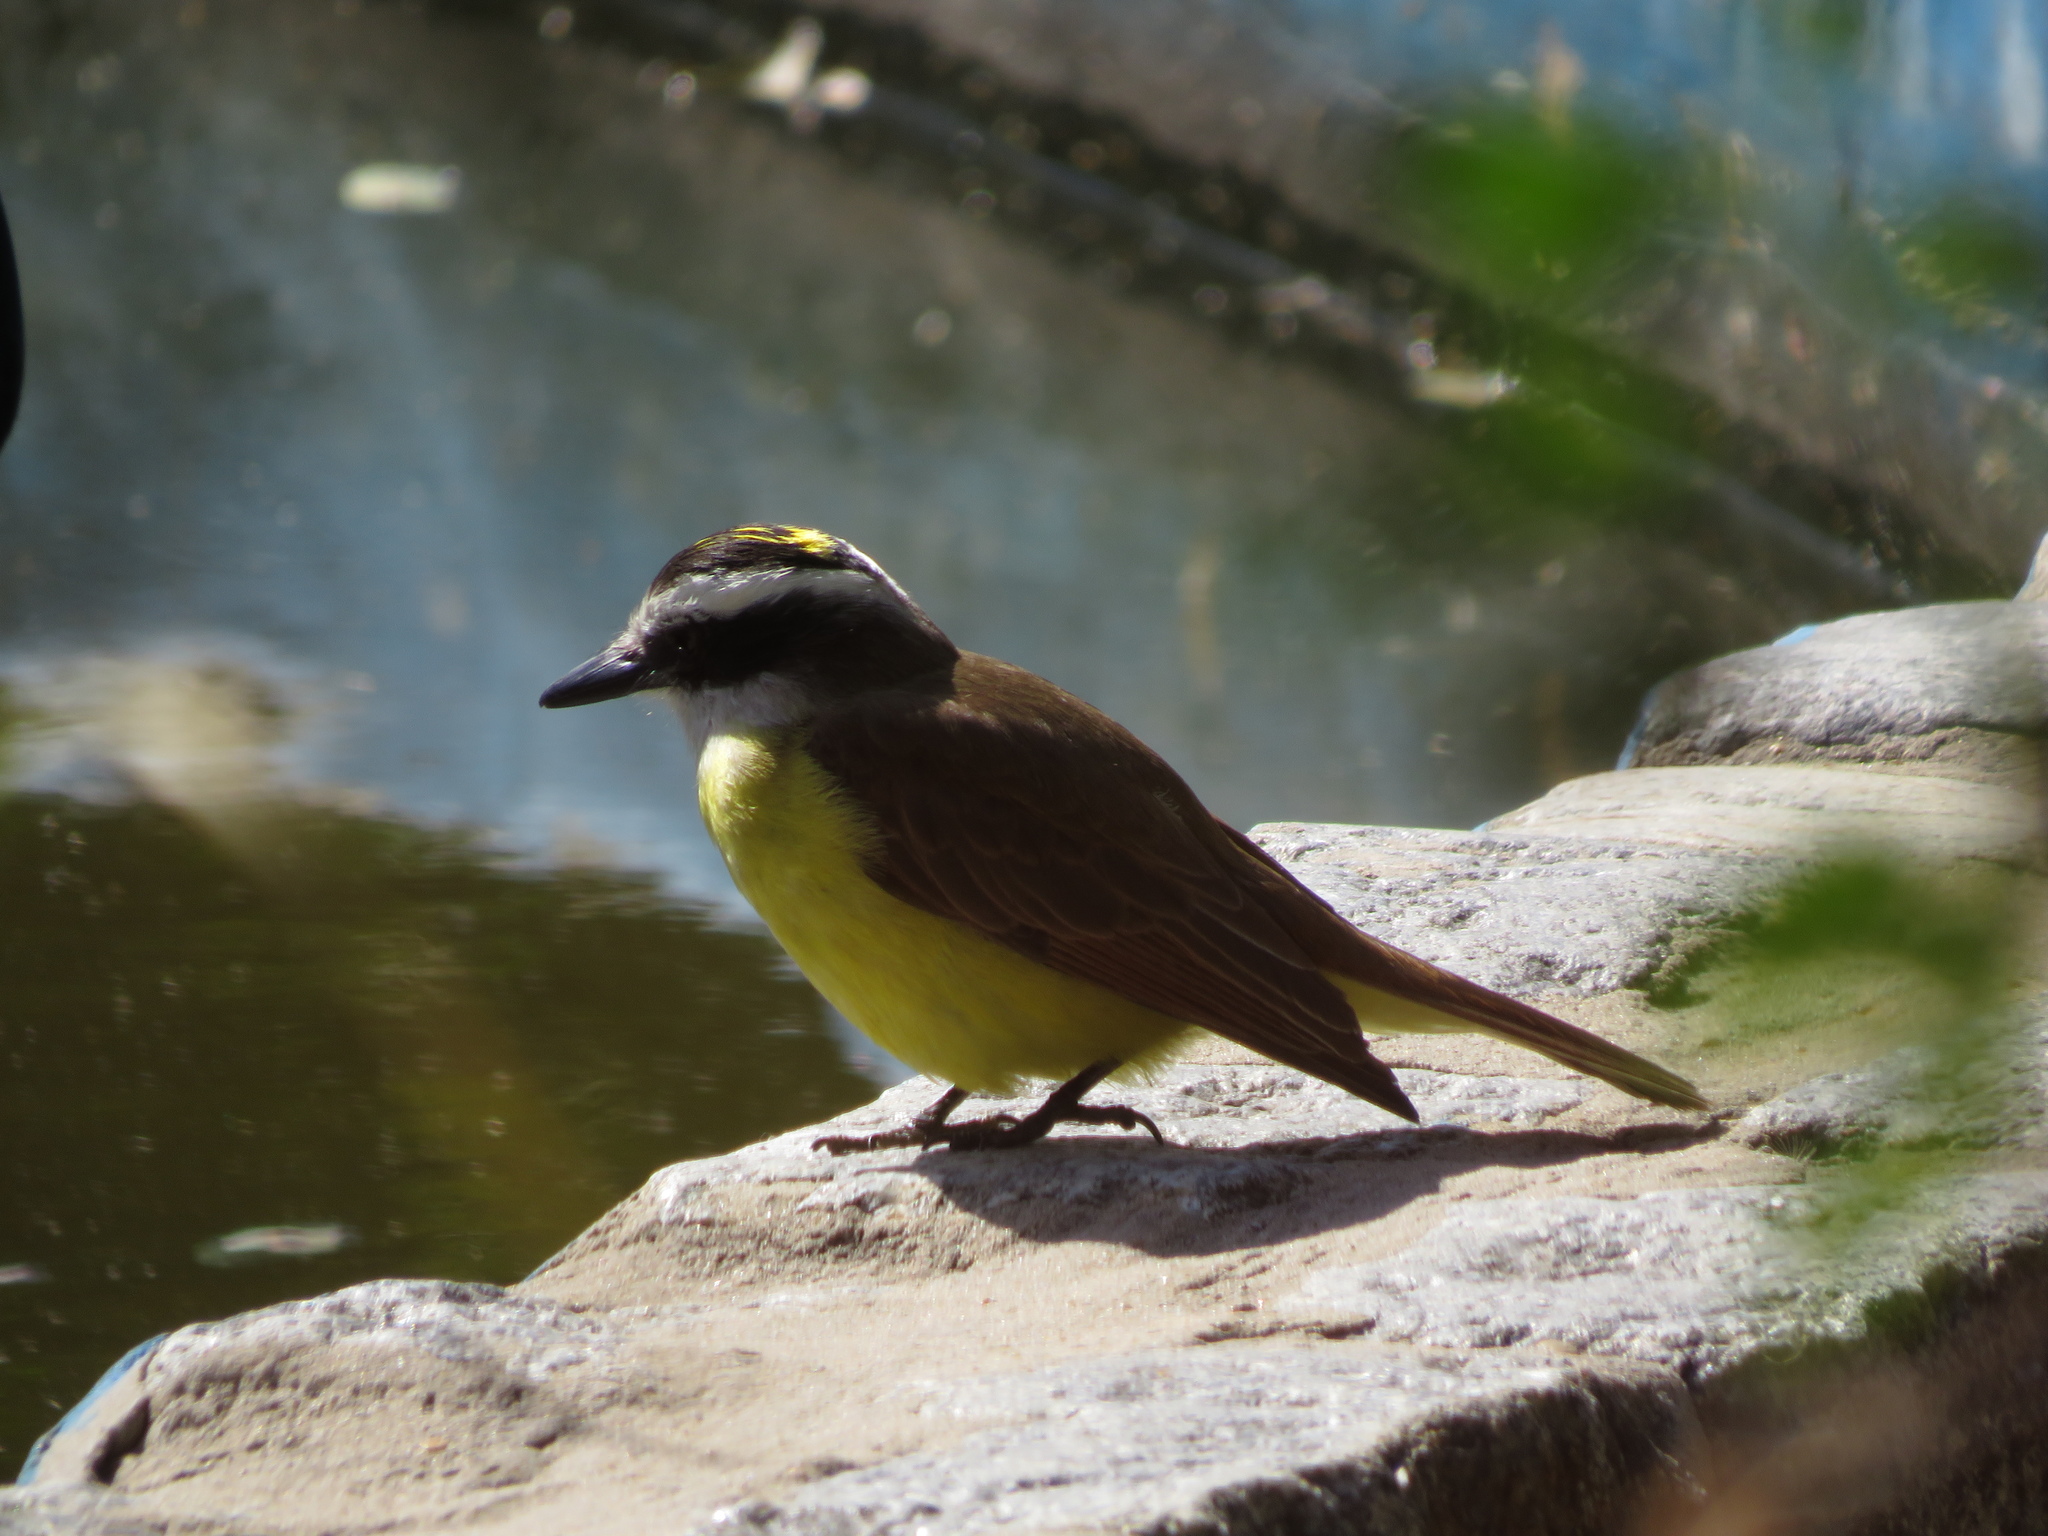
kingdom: Animalia
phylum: Chordata
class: Aves
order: Passeriformes
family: Tyrannidae
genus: Pitangus
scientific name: Pitangus sulphuratus
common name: Great kiskadee
